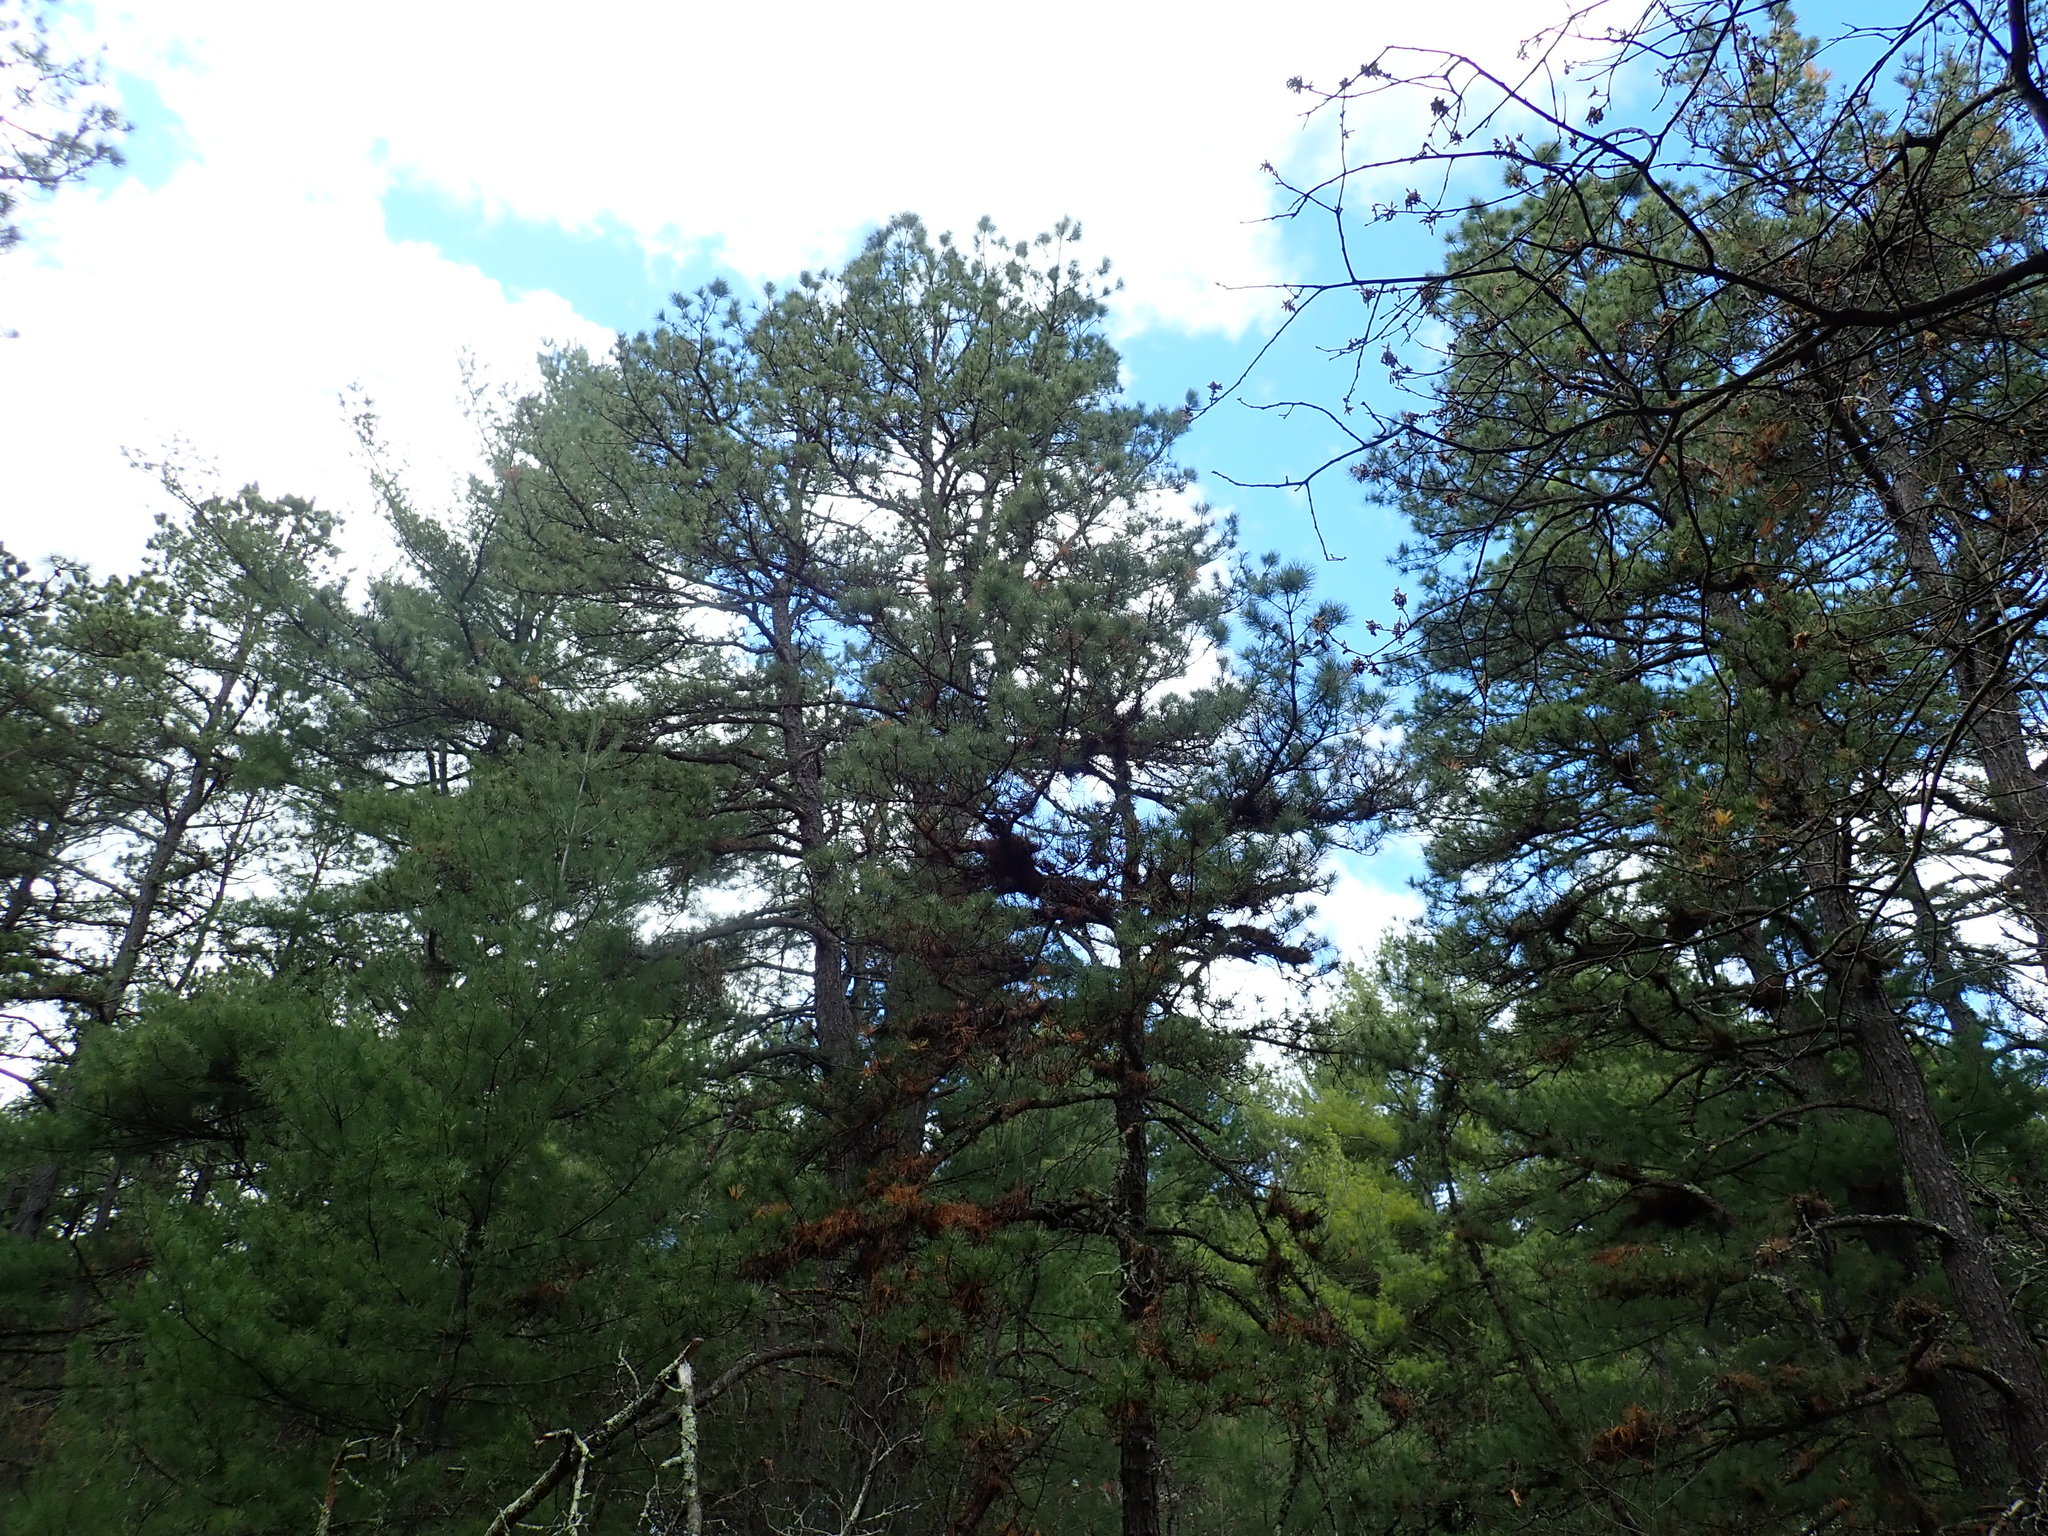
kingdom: Plantae
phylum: Tracheophyta
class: Pinopsida
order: Pinales
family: Pinaceae
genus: Pinus
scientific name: Pinus rigida
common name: Pitch pine
